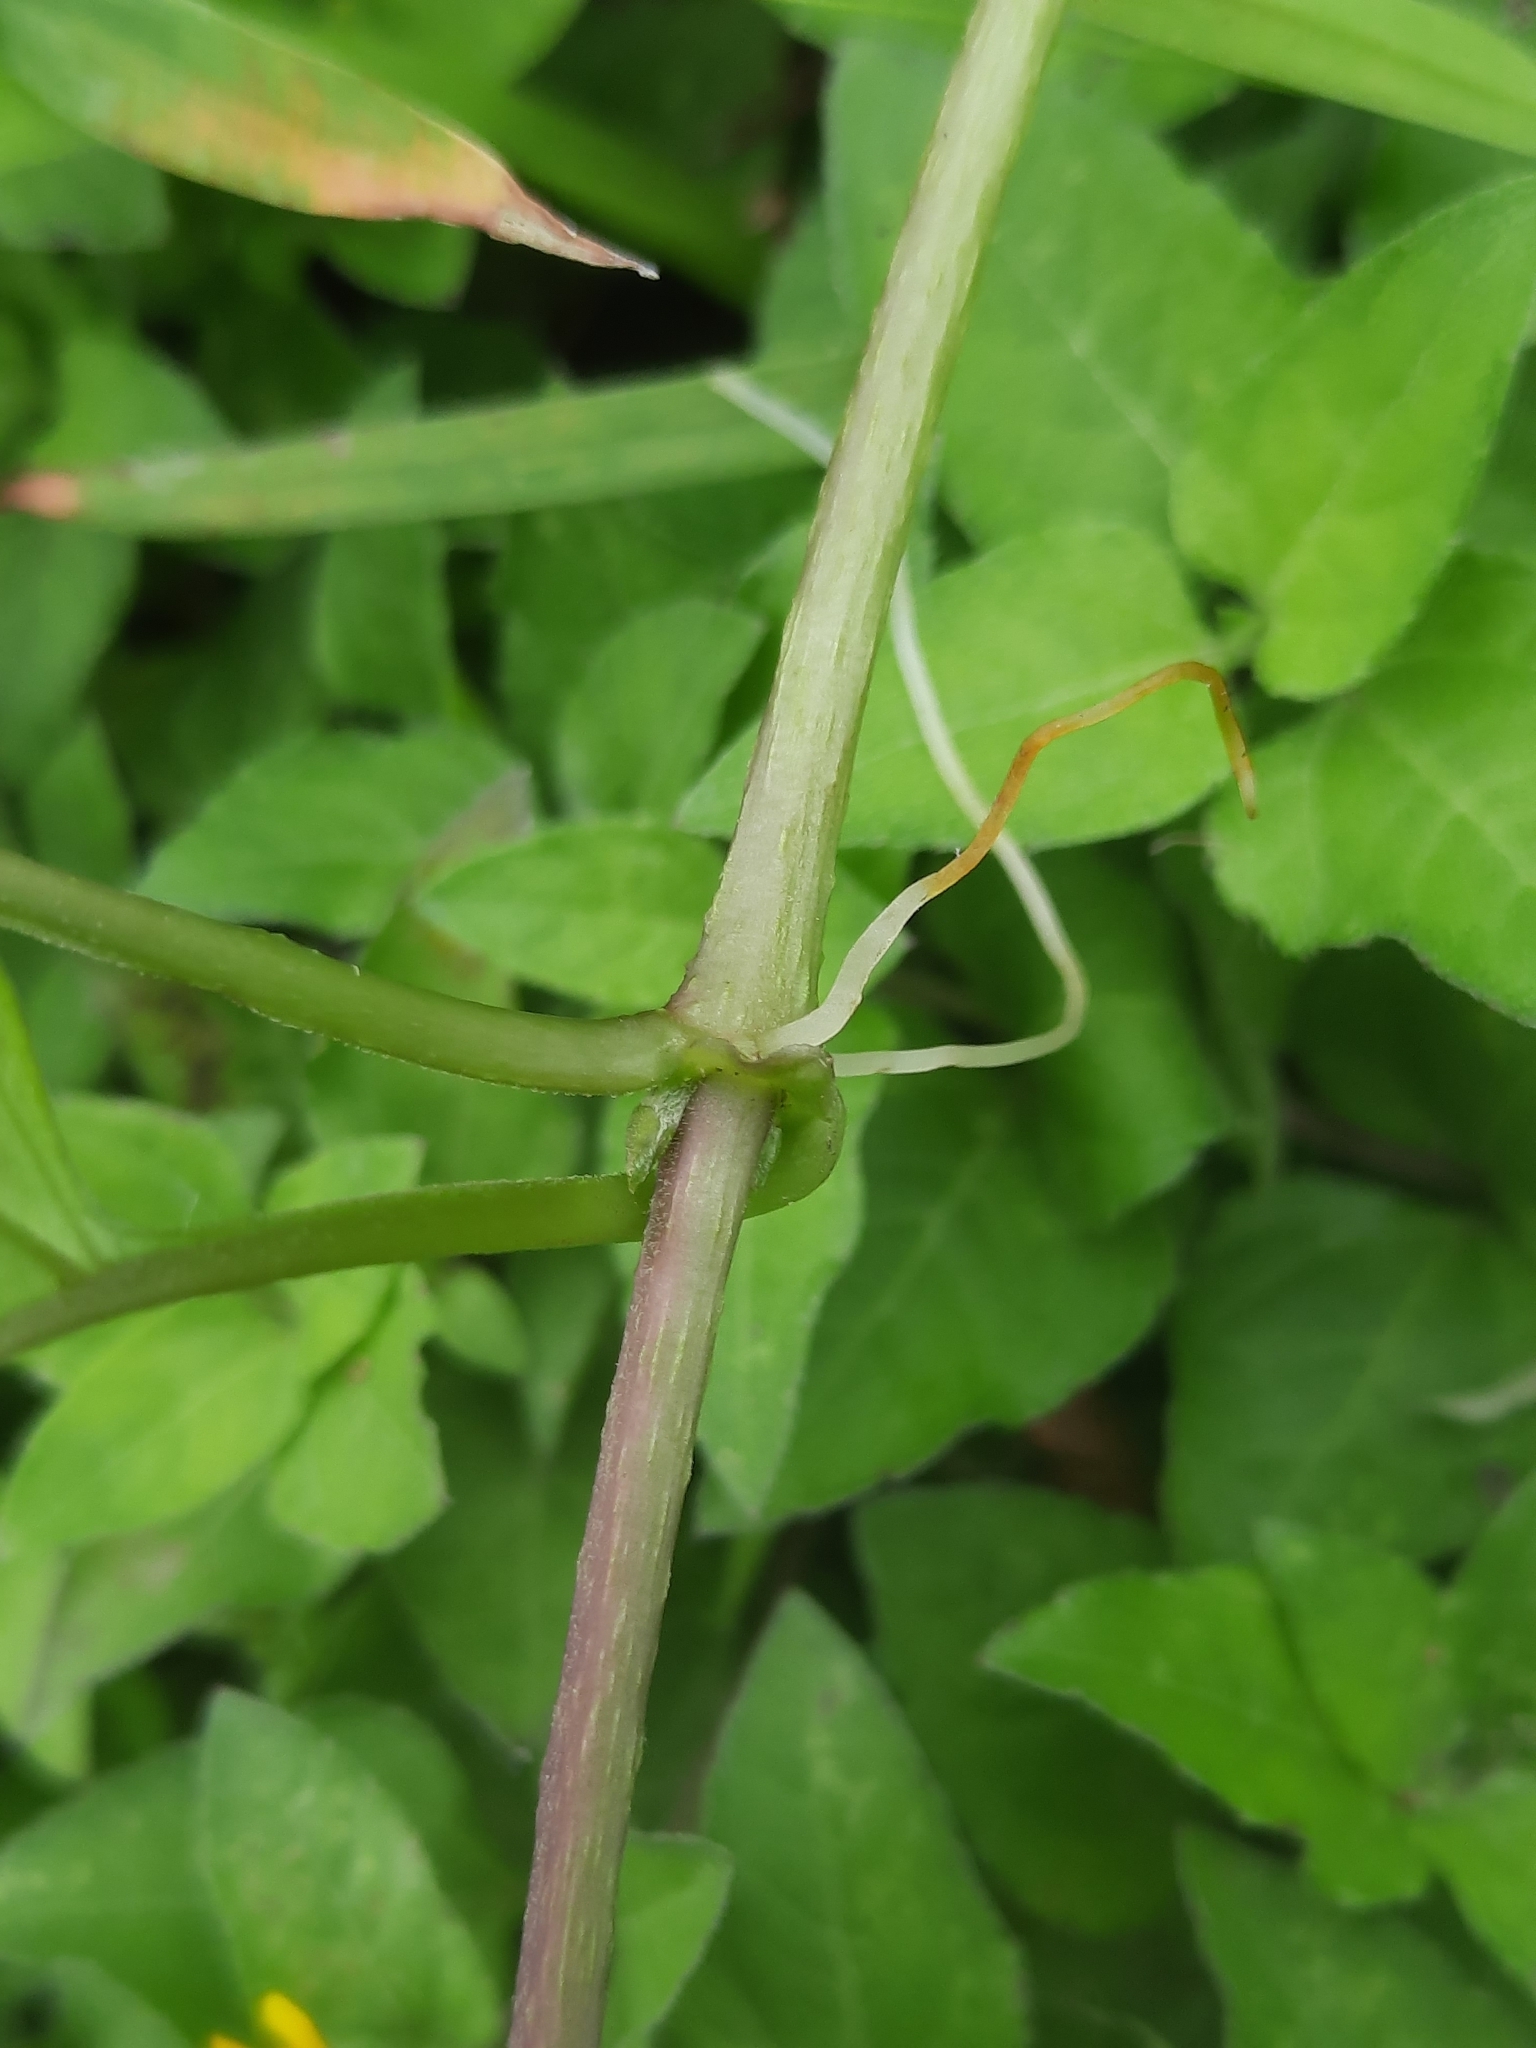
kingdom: Plantae
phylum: Tracheophyta
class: Magnoliopsida
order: Gentianales
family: Rubiaceae
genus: Paederia
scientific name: Paederia foetida
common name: Stinkvine
